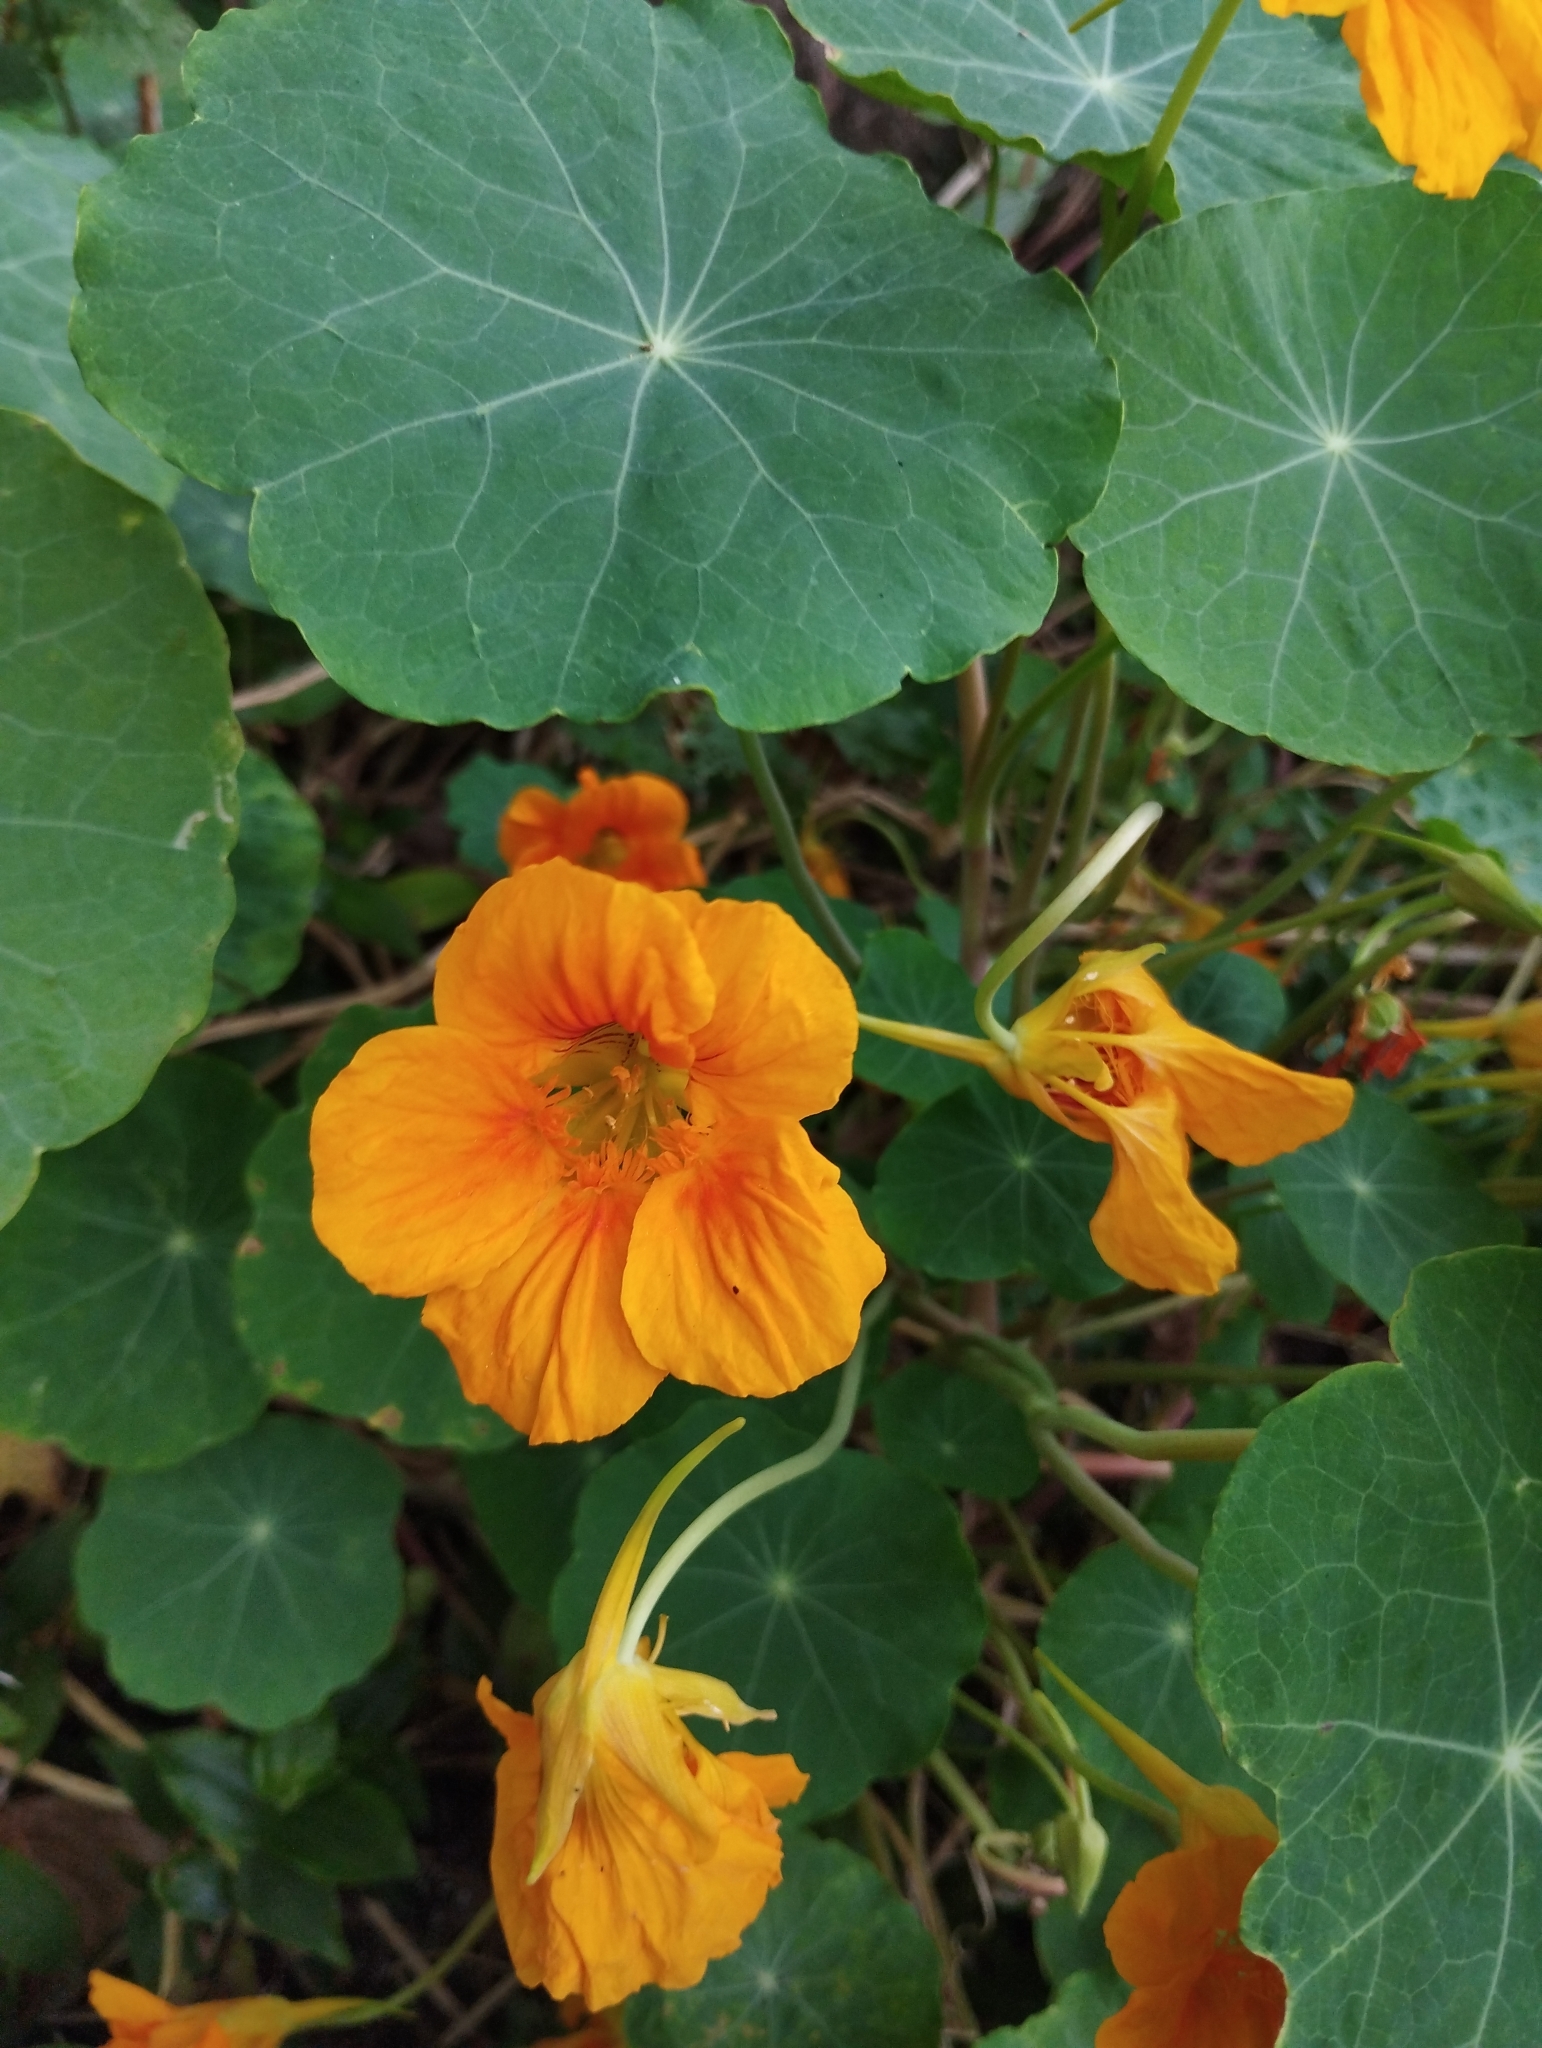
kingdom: Plantae
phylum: Tracheophyta
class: Magnoliopsida
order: Brassicales
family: Tropaeolaceae
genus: Tropaeolum
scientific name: Tropaeolum majus
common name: Nasturtium
